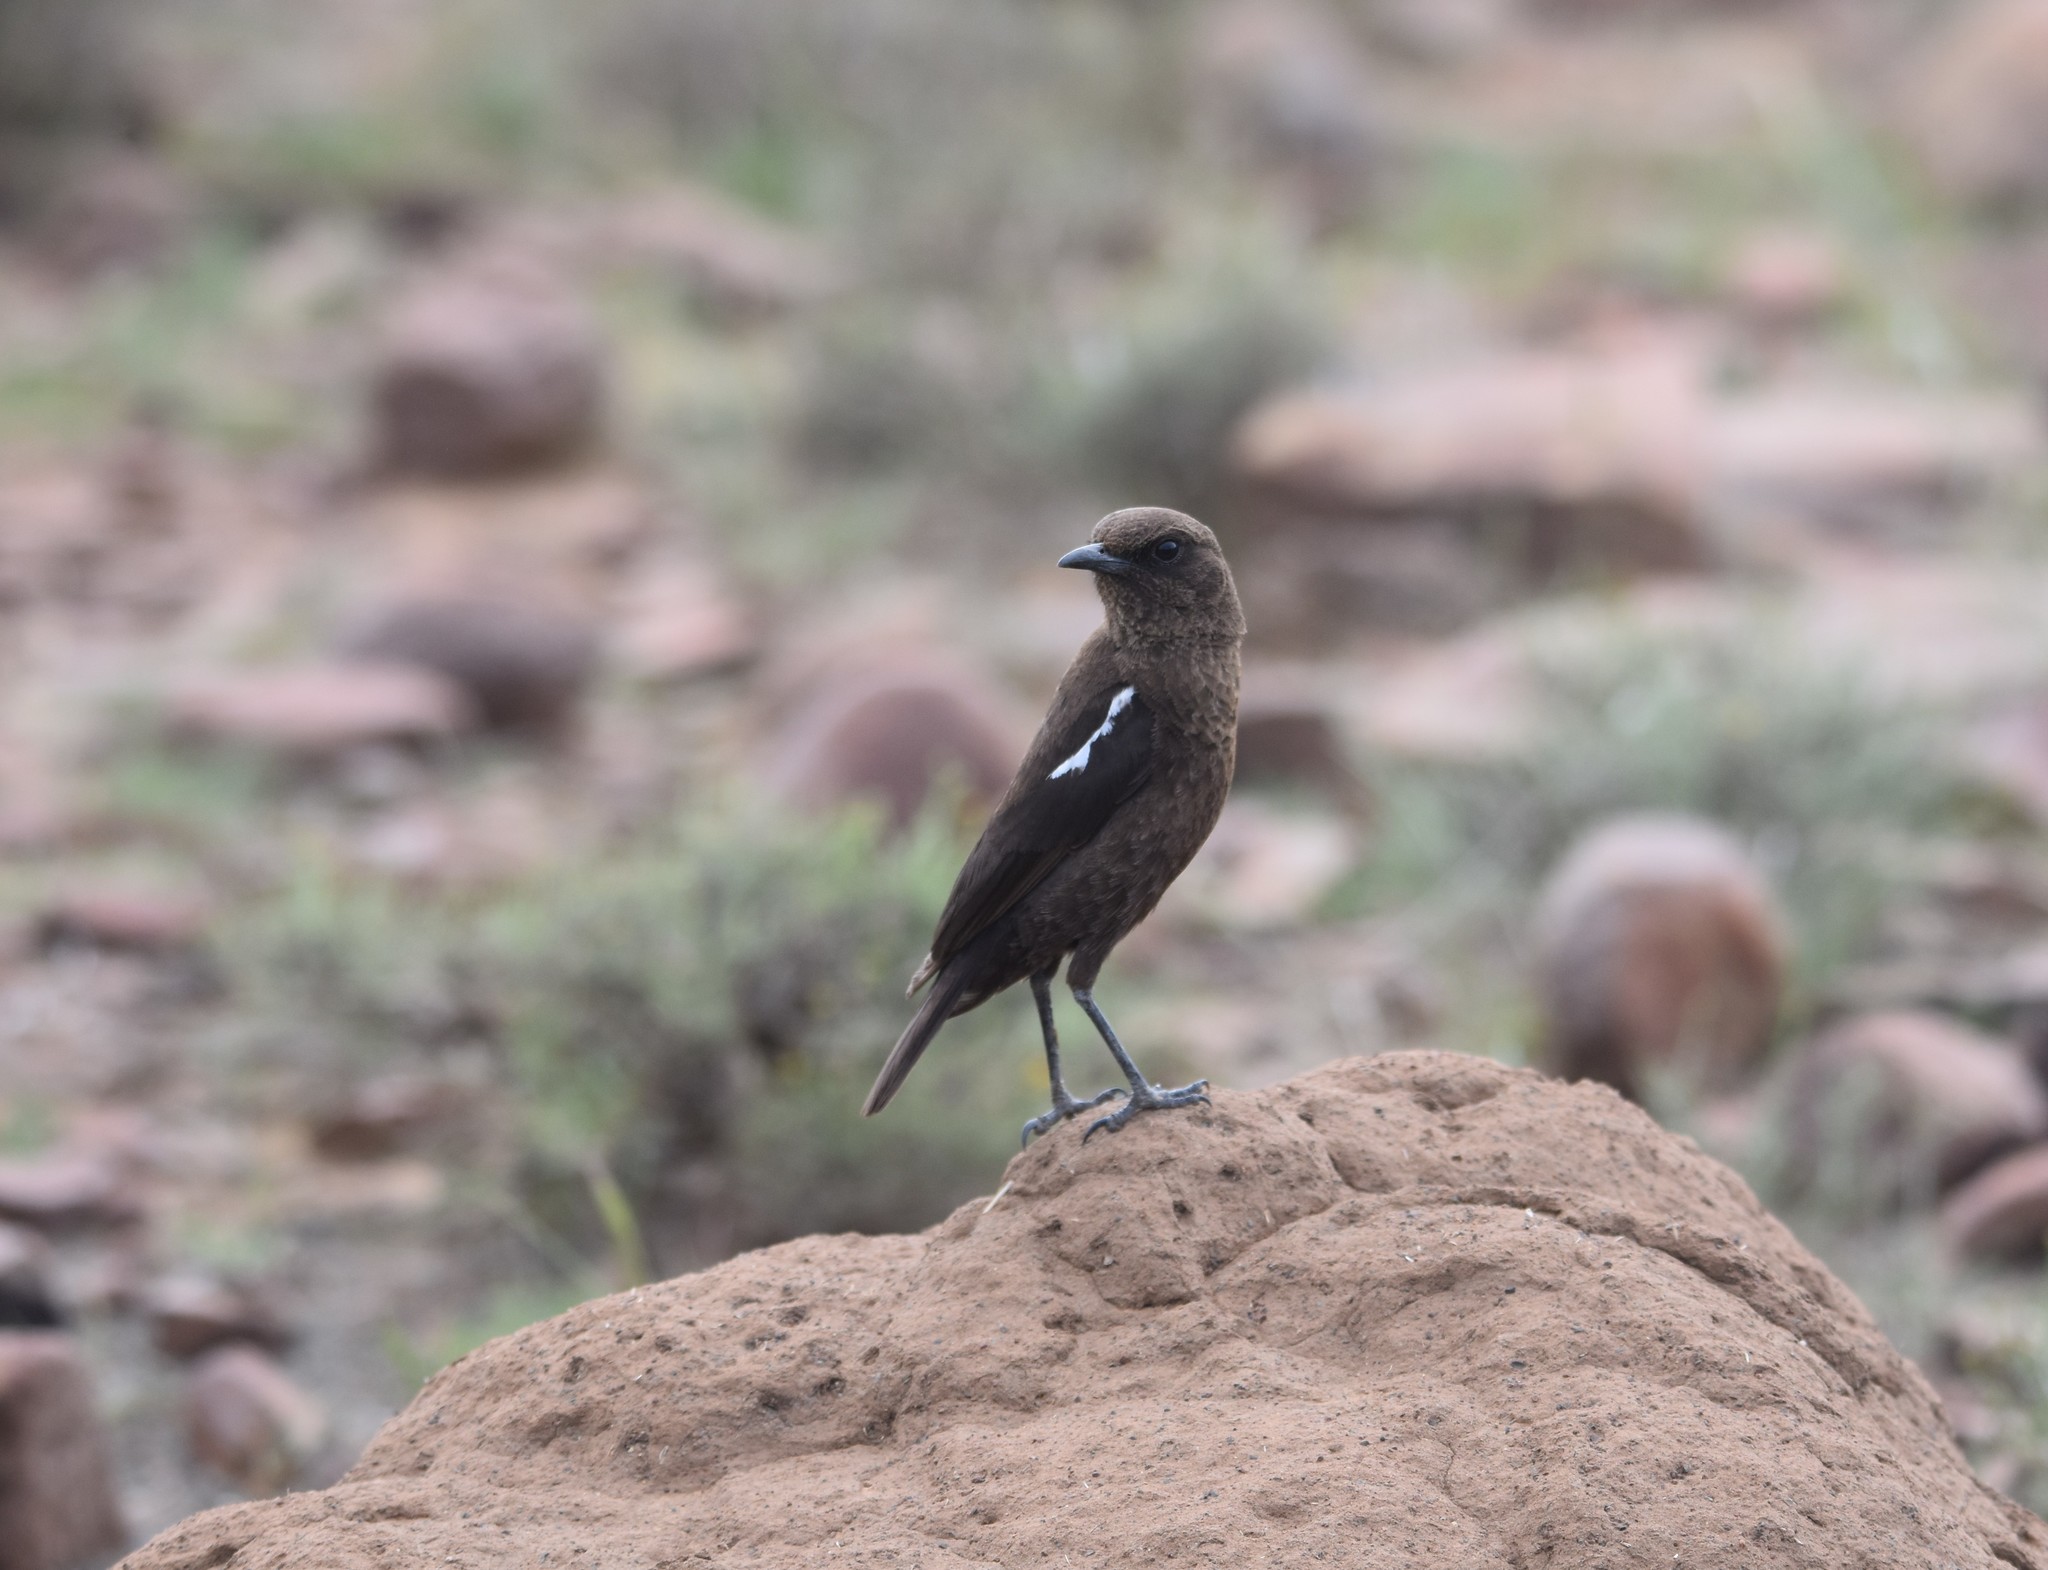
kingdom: Animalia
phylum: Chordata
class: Aves
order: Passeriformes
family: Muscicapidae
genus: Myrmecocichla
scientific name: Myrmecocichla formicivora
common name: Ant-eating chat
